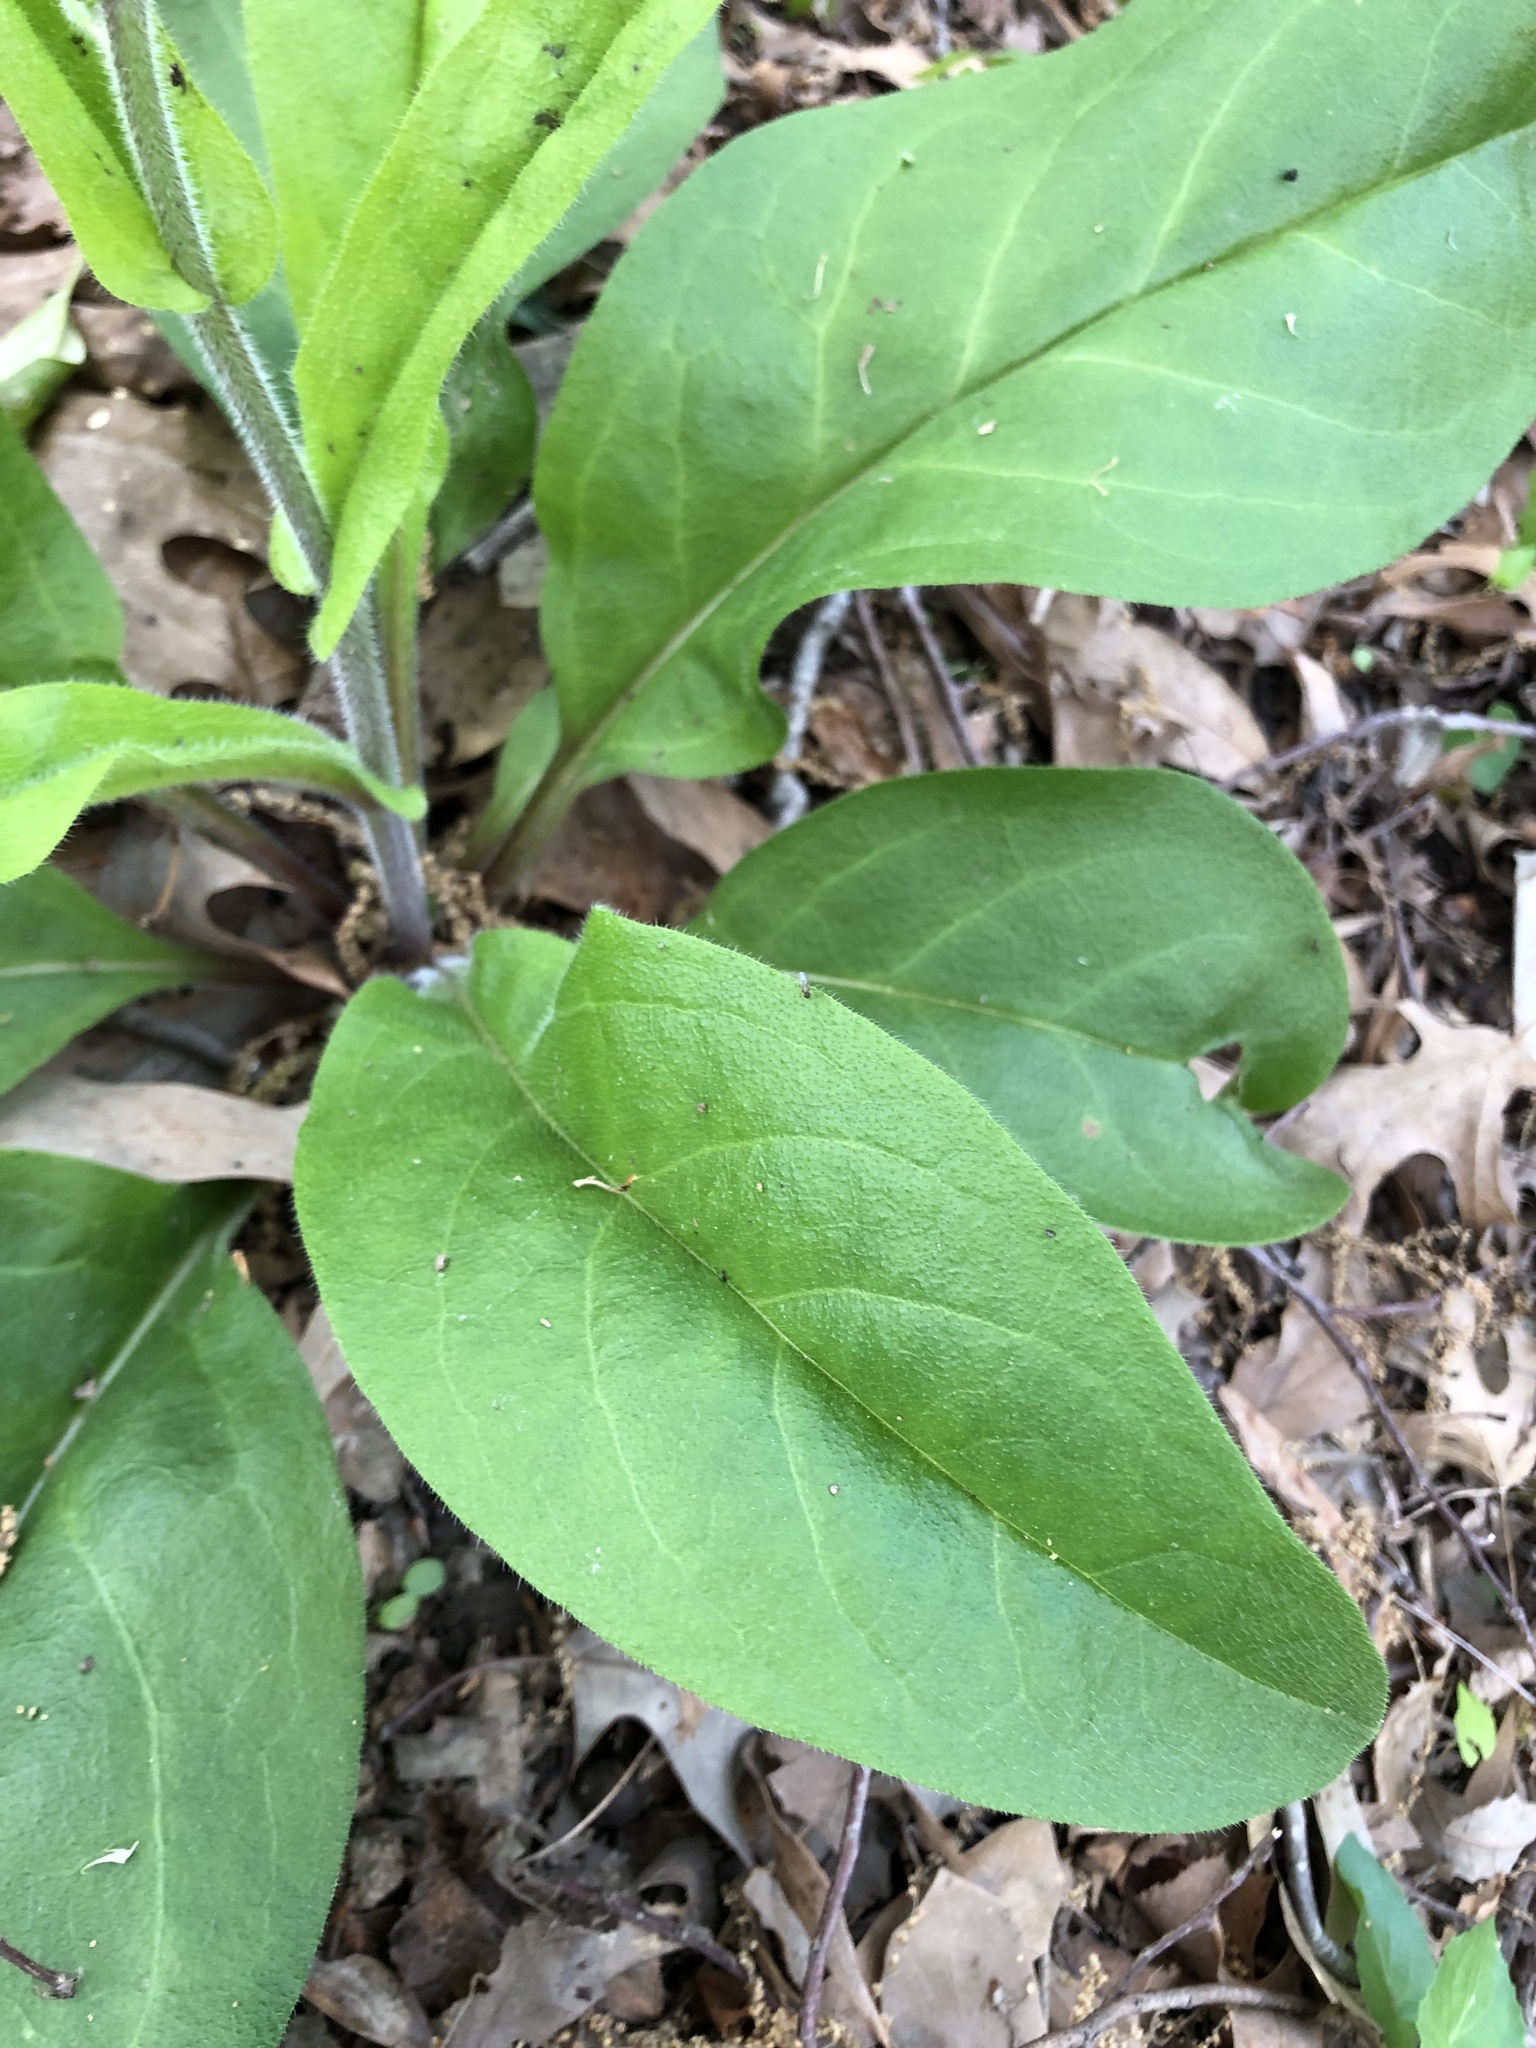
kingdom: Plantae
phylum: Tracheophyta
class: Magnoliopsida
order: Boraginales
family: Boraginaceae
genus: Andersonglossum
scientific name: Andersonglossum virginianum
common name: Wild comfrey
